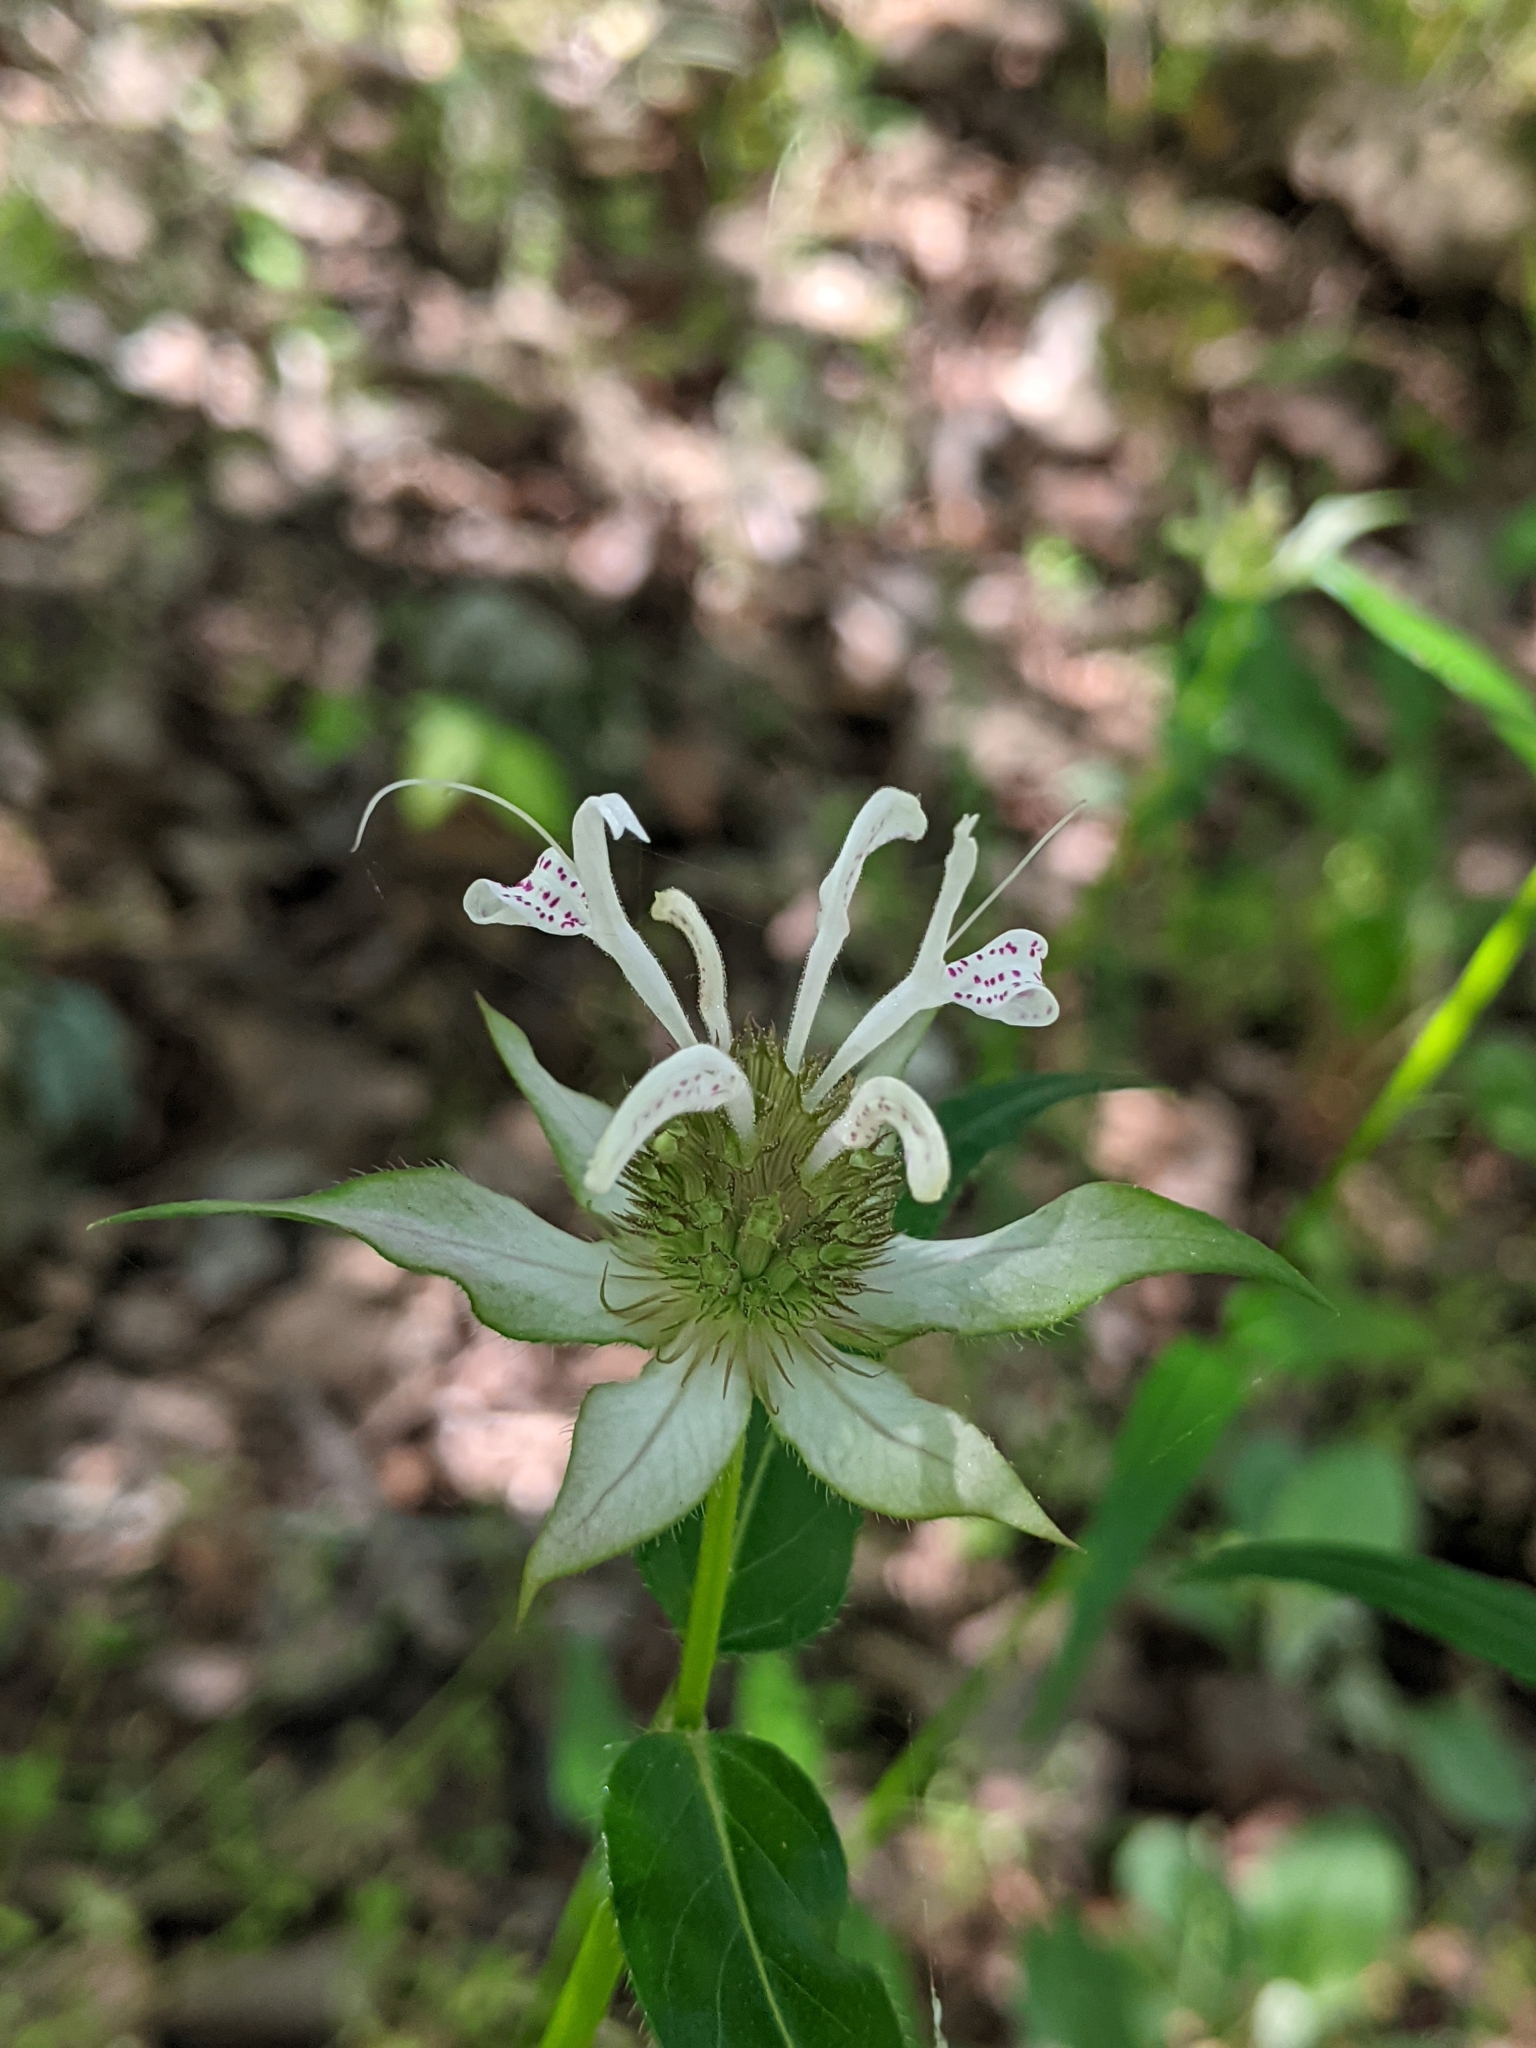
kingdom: Plantae
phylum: Tracheophyta
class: Magnoliopsida
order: Lamiales
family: Lamiaceae
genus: Monarda
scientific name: Monarda russeliana
